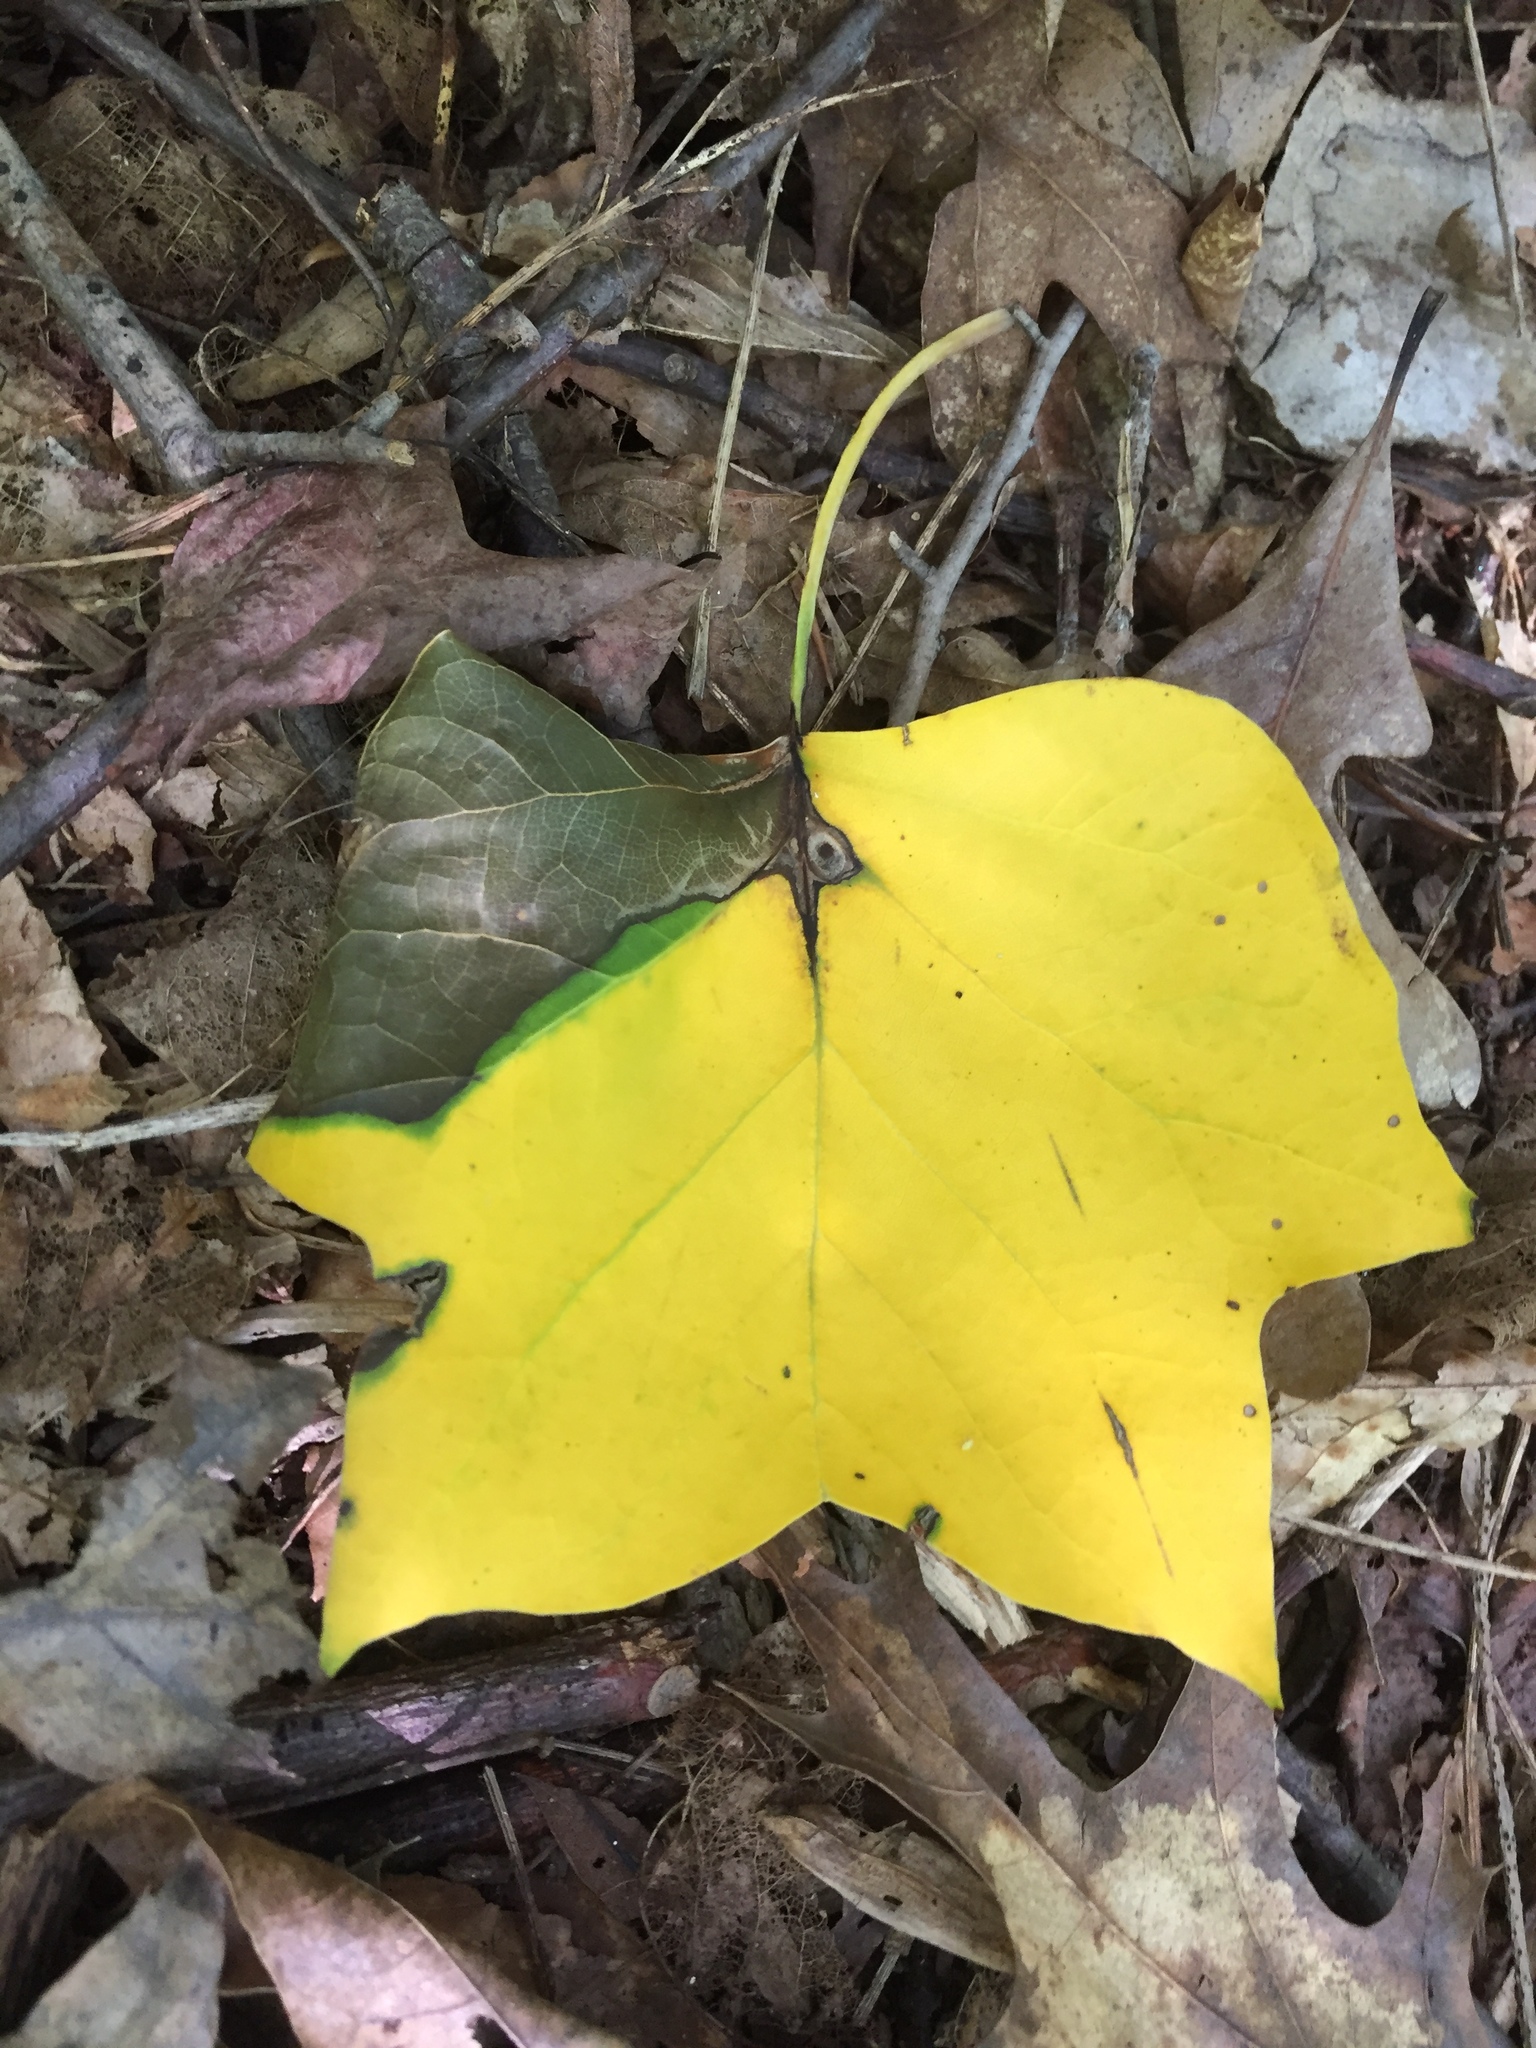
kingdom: Plantae
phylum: Tracheophyta
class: Magnoliopsida
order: Magnoliales
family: Magnoliaceae
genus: Liriodendron
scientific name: Liriodendron tulipifera
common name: Tulip tree
